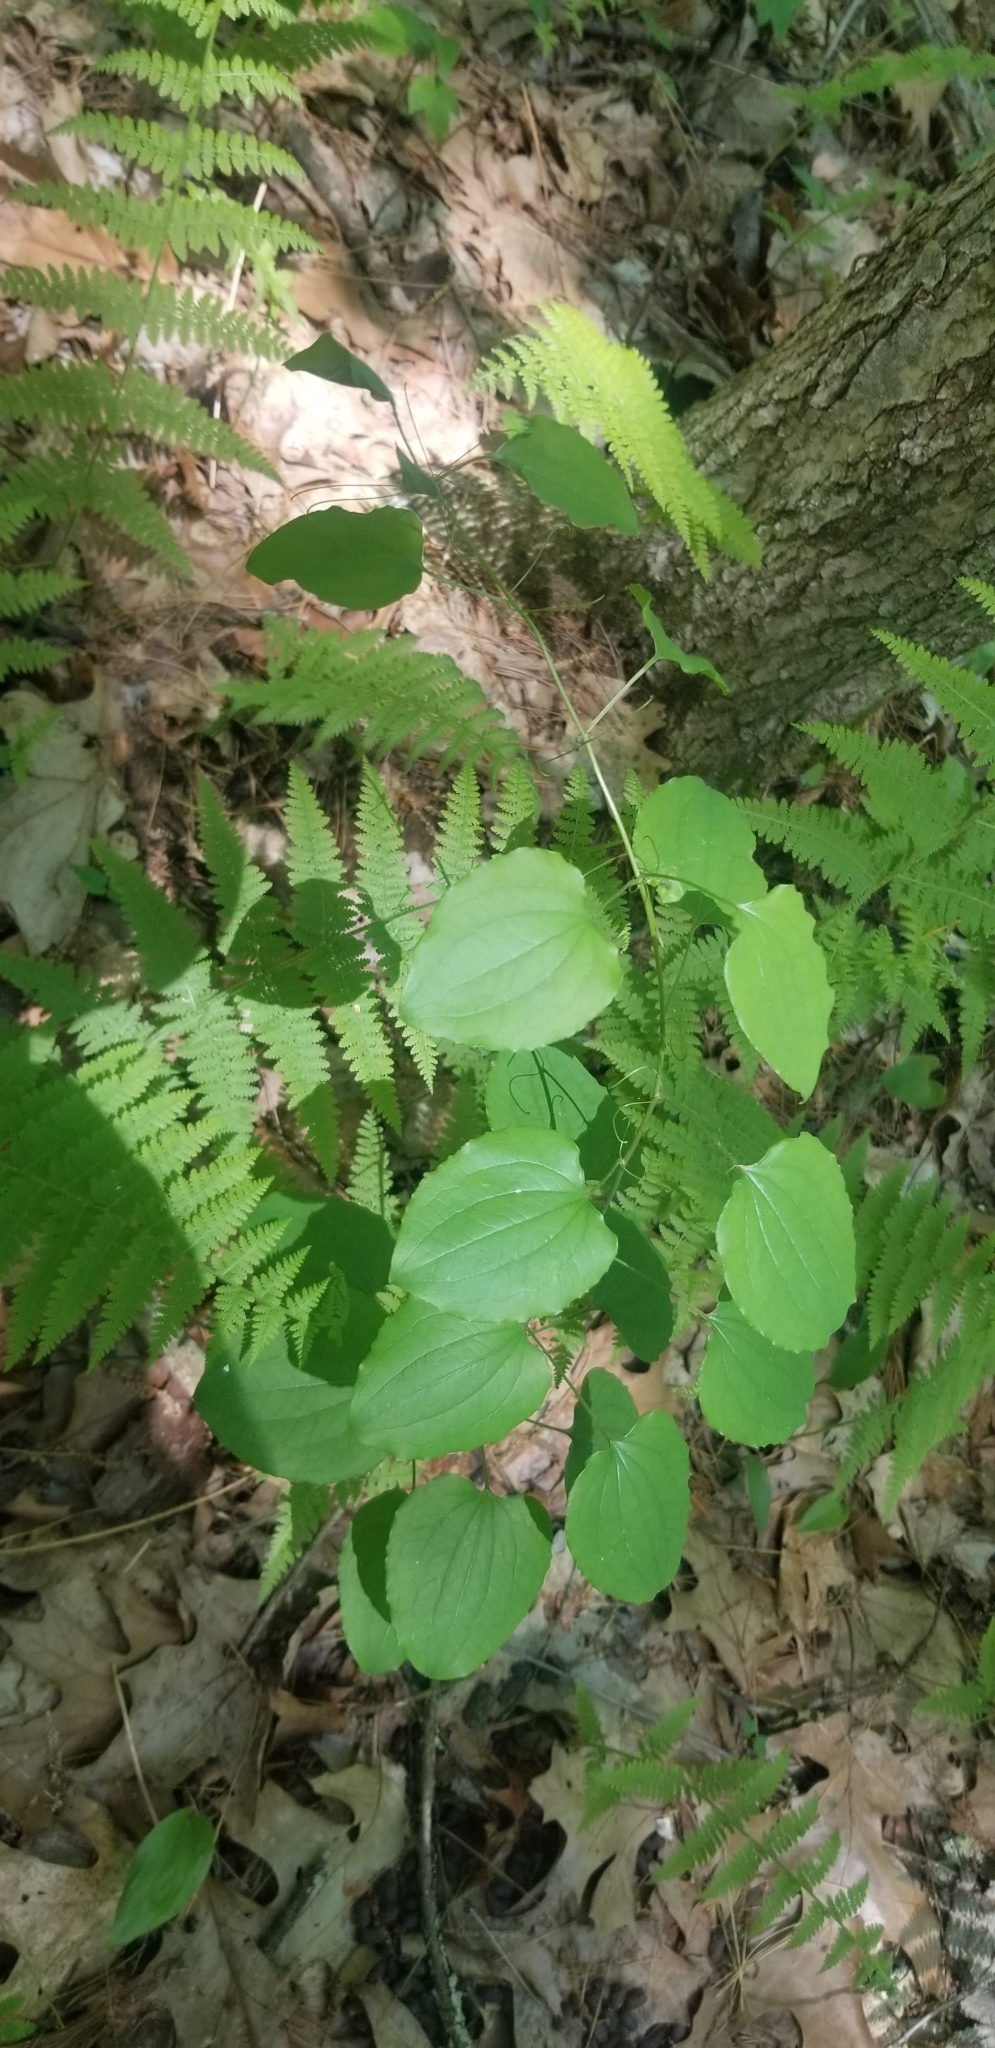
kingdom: Plantae
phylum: Tracheophyta
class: Liliopsida
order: Liliales
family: Smilacaceae
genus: Smilax
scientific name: Smilax herbacea
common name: Jacob's-ladder
